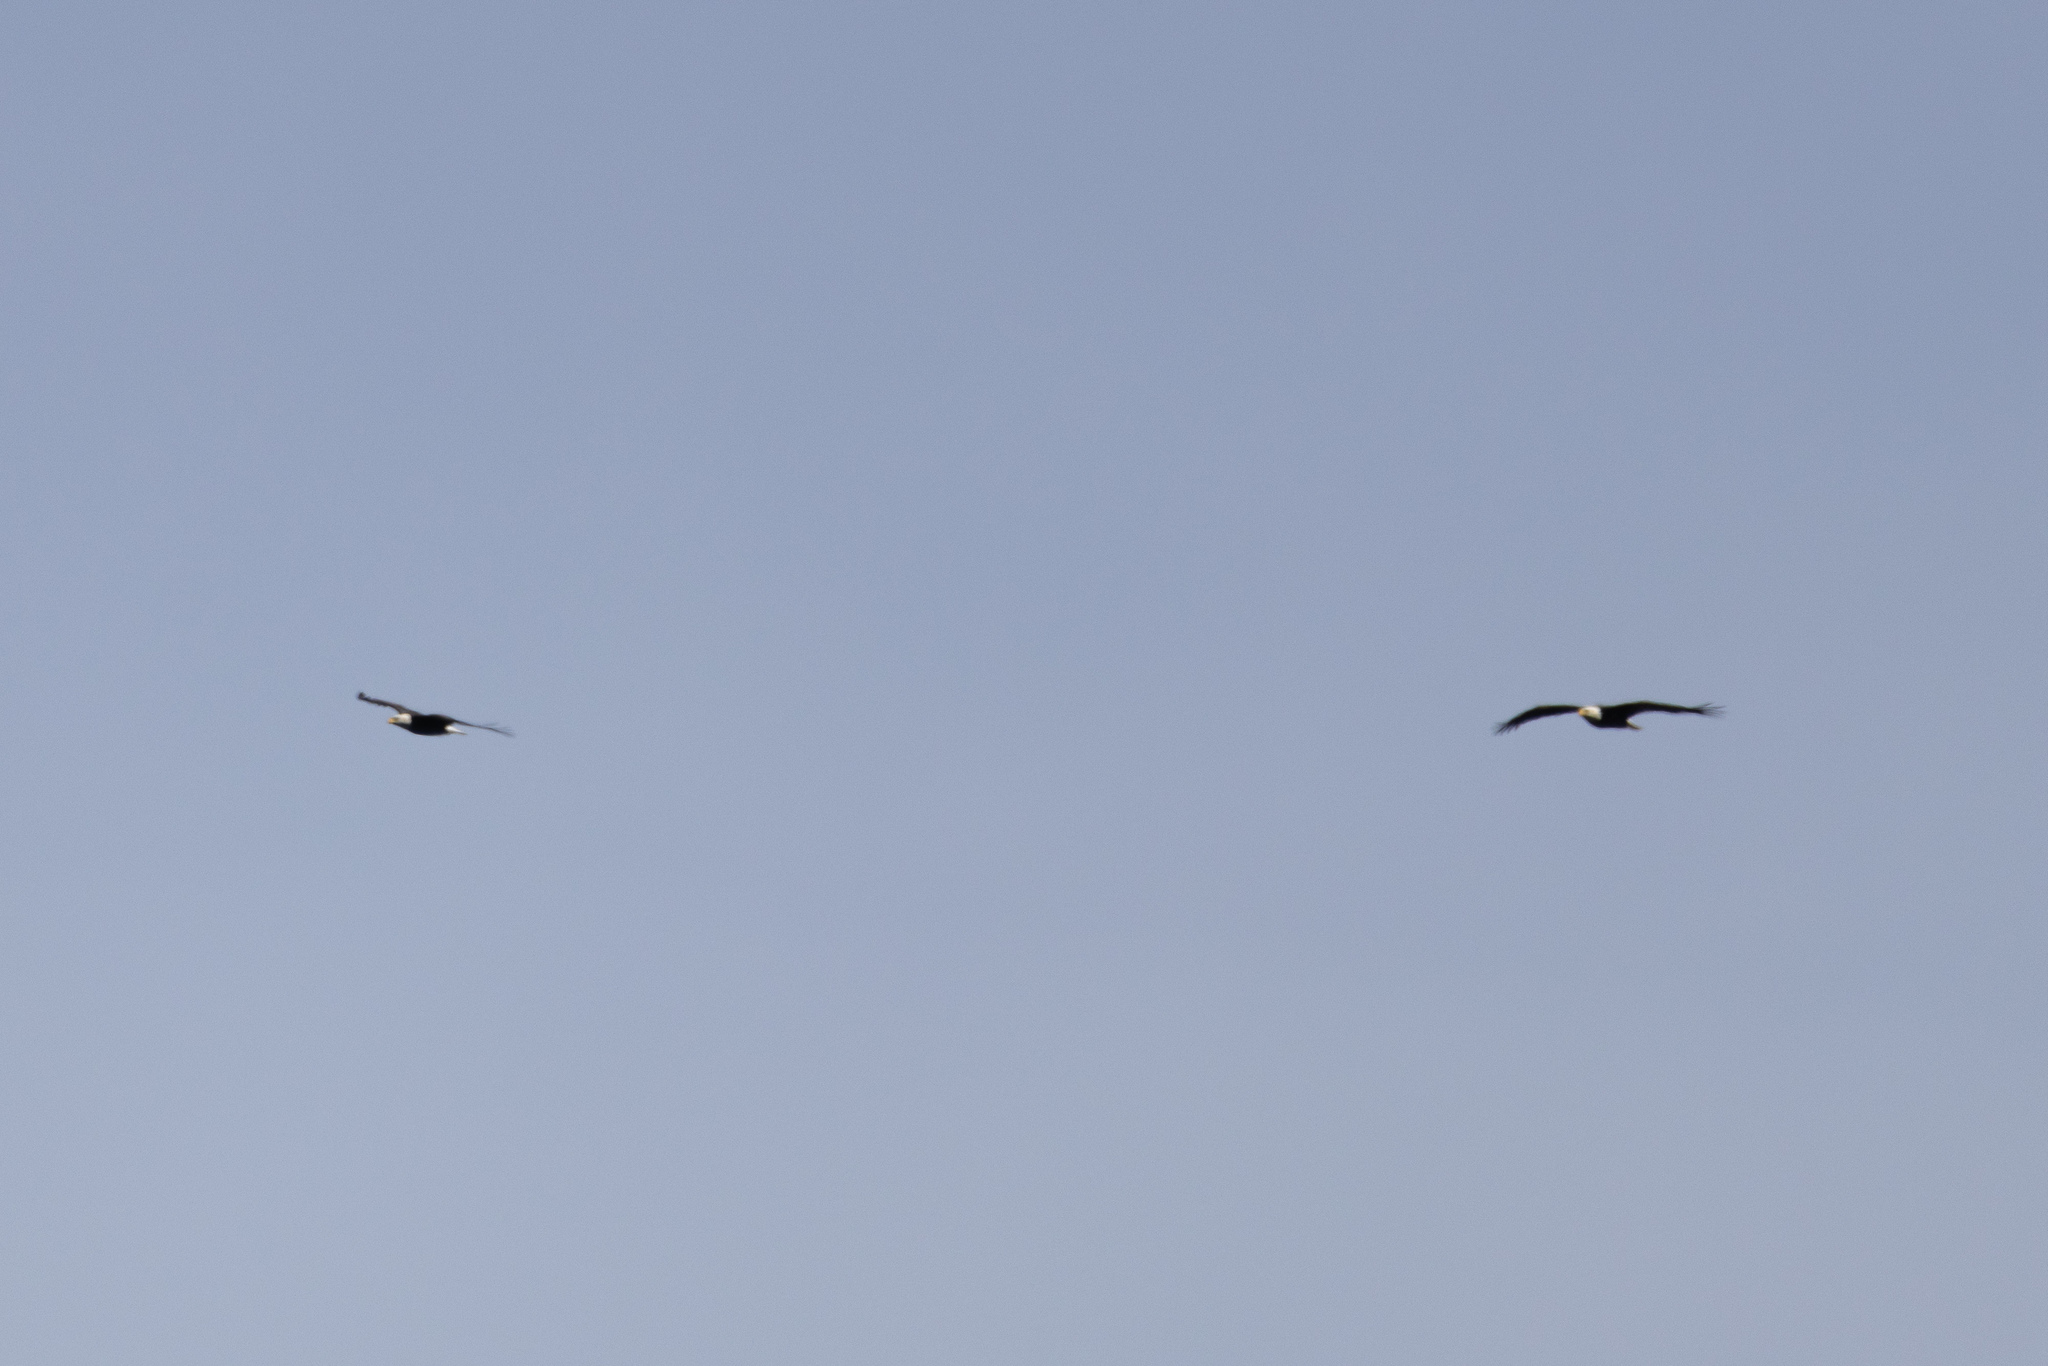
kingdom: Animalia
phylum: Chordata
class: Aves
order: Accipitriformes
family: Accipitridae
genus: Haliaeetus
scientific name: Haliaeetus leucocephalus
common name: Bald eagle
